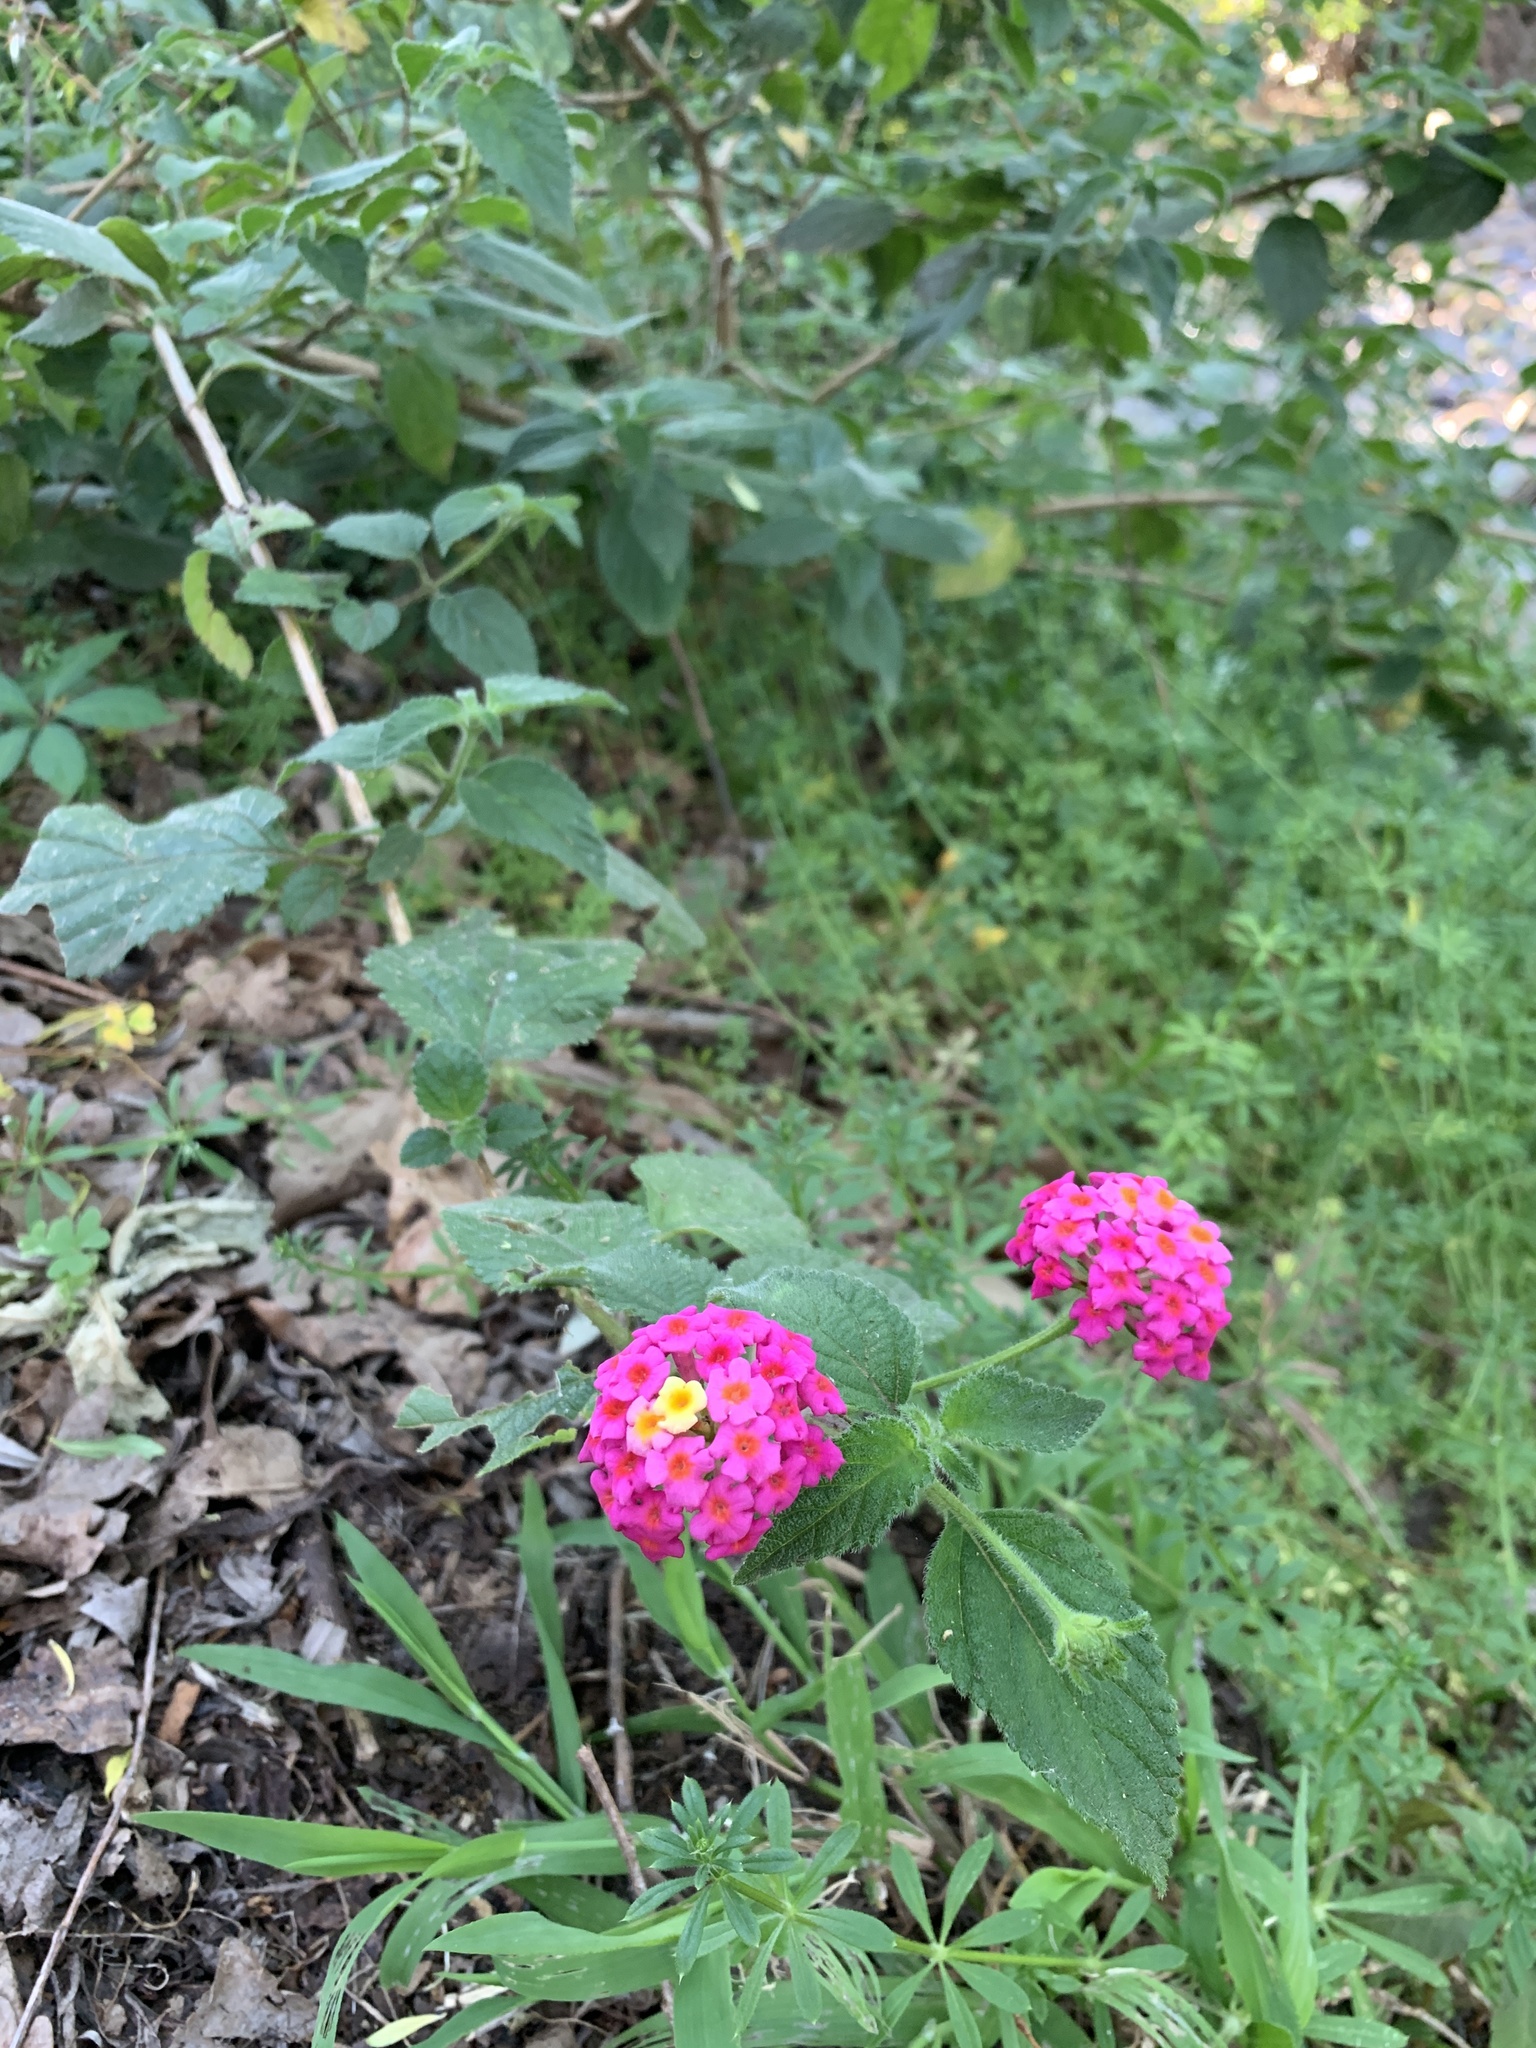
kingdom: Plantae
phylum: Tracheophyta
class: Magnoliopsida
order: Lamiales
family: Verbenaceae
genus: Lantana
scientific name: Lantana camara
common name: Lantana
